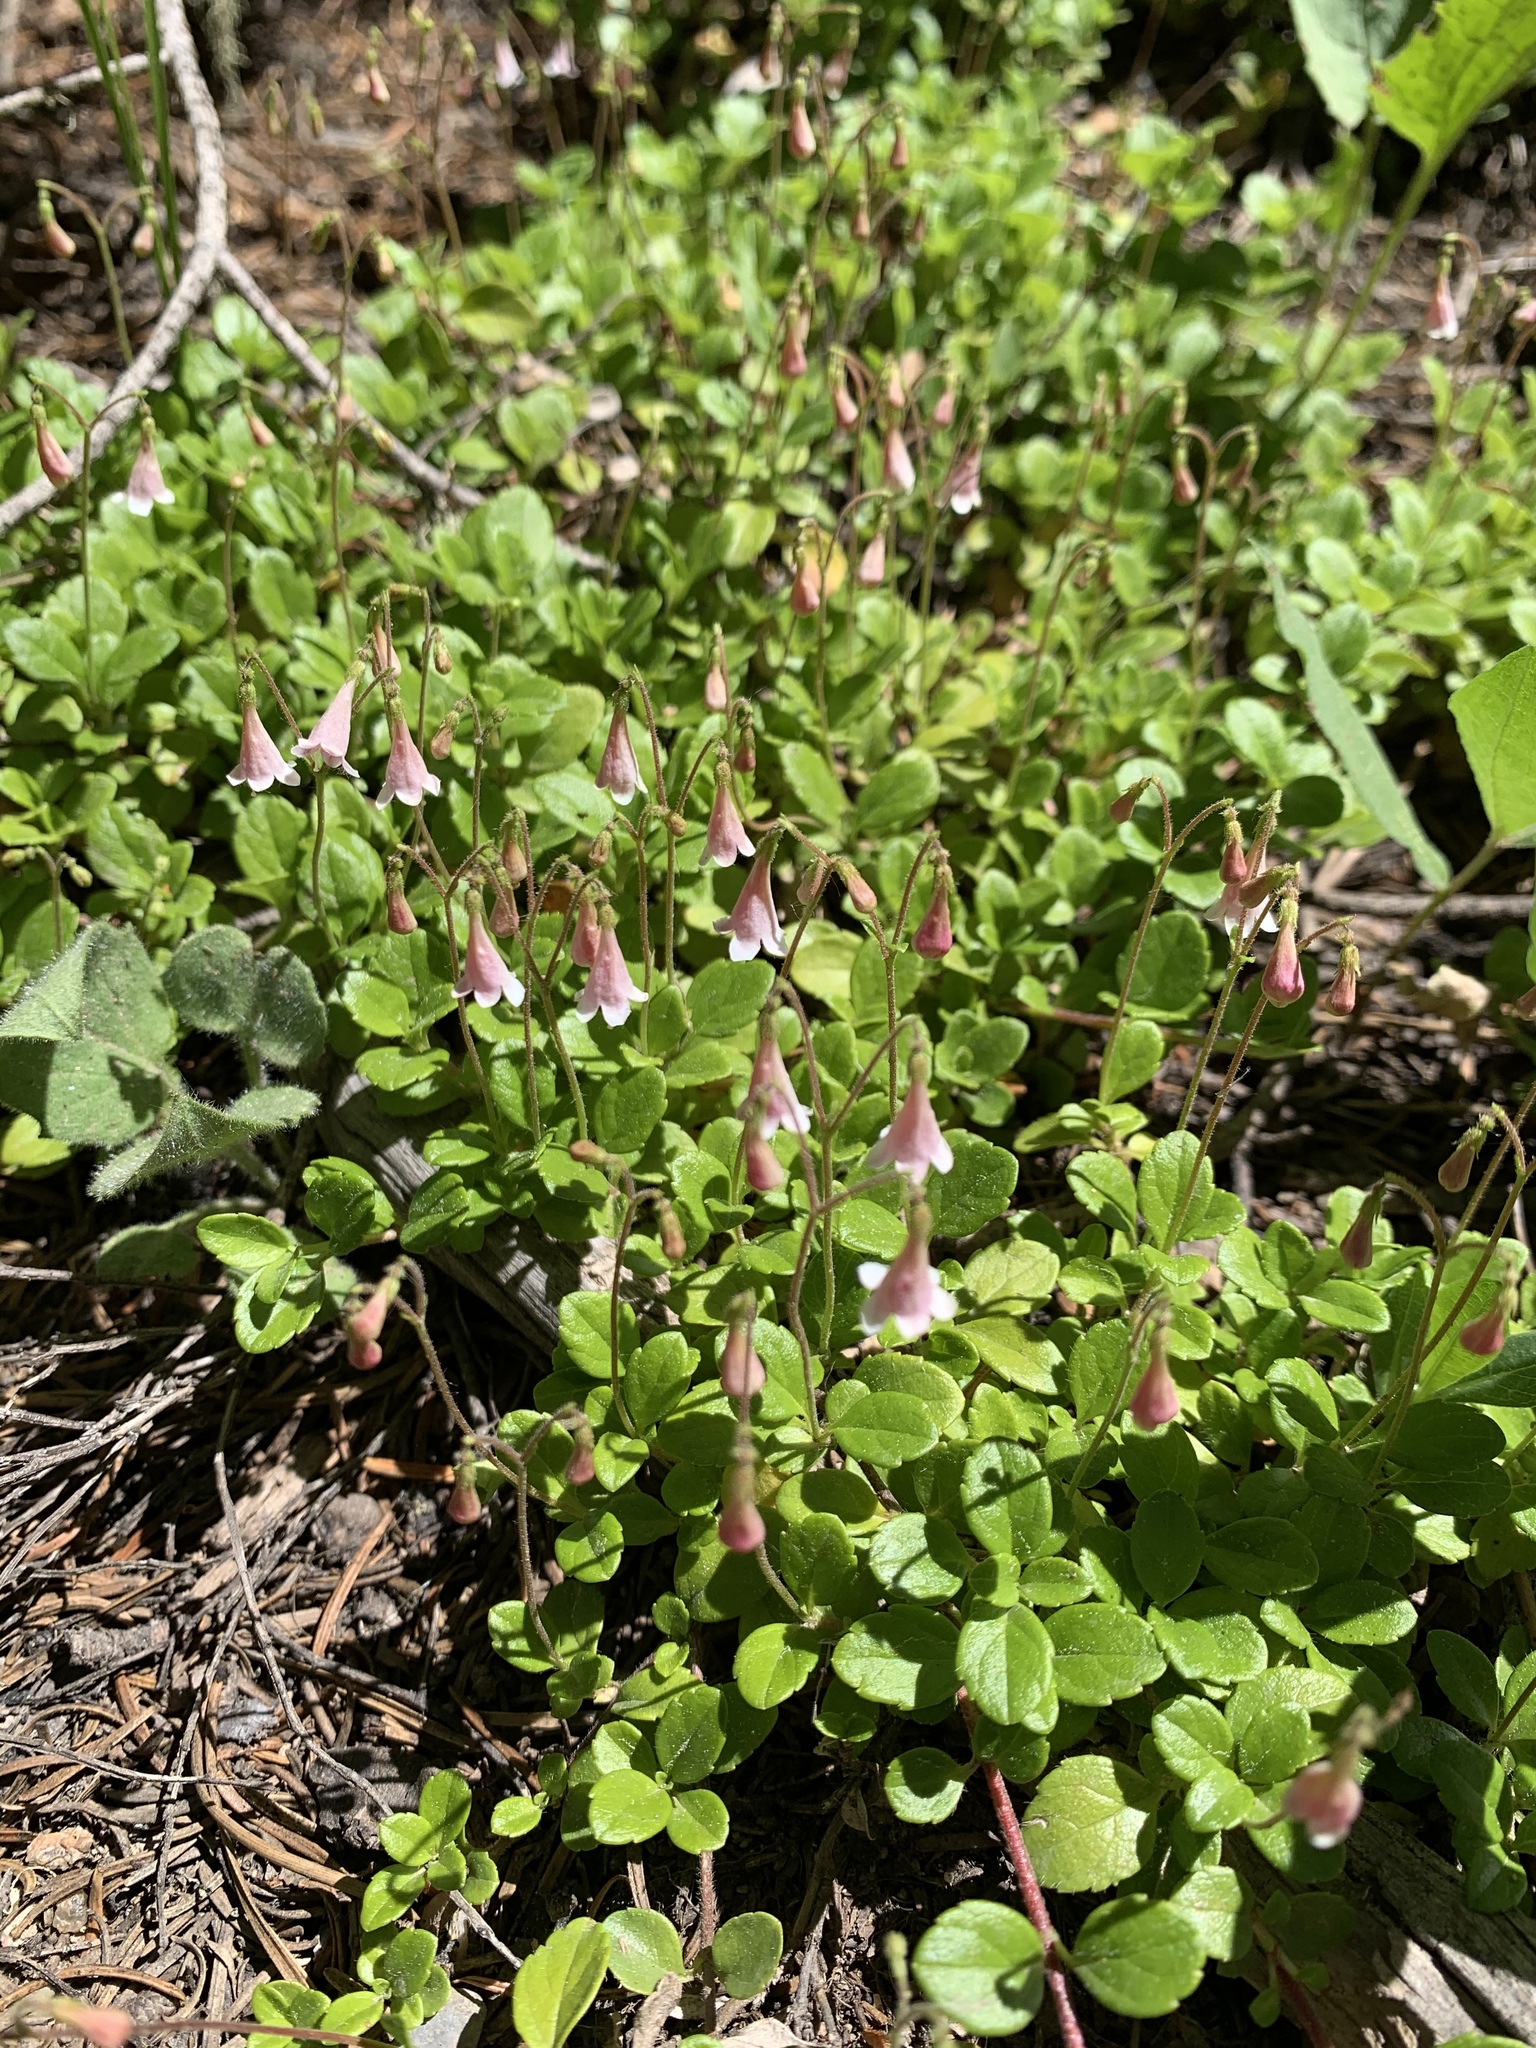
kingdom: Plantae
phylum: Tracheophyta
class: Magnoliopsida
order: Dipsacales
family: Caprifoliaceae
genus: Linnaea
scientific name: Linnaea borealis
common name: Twinflower
